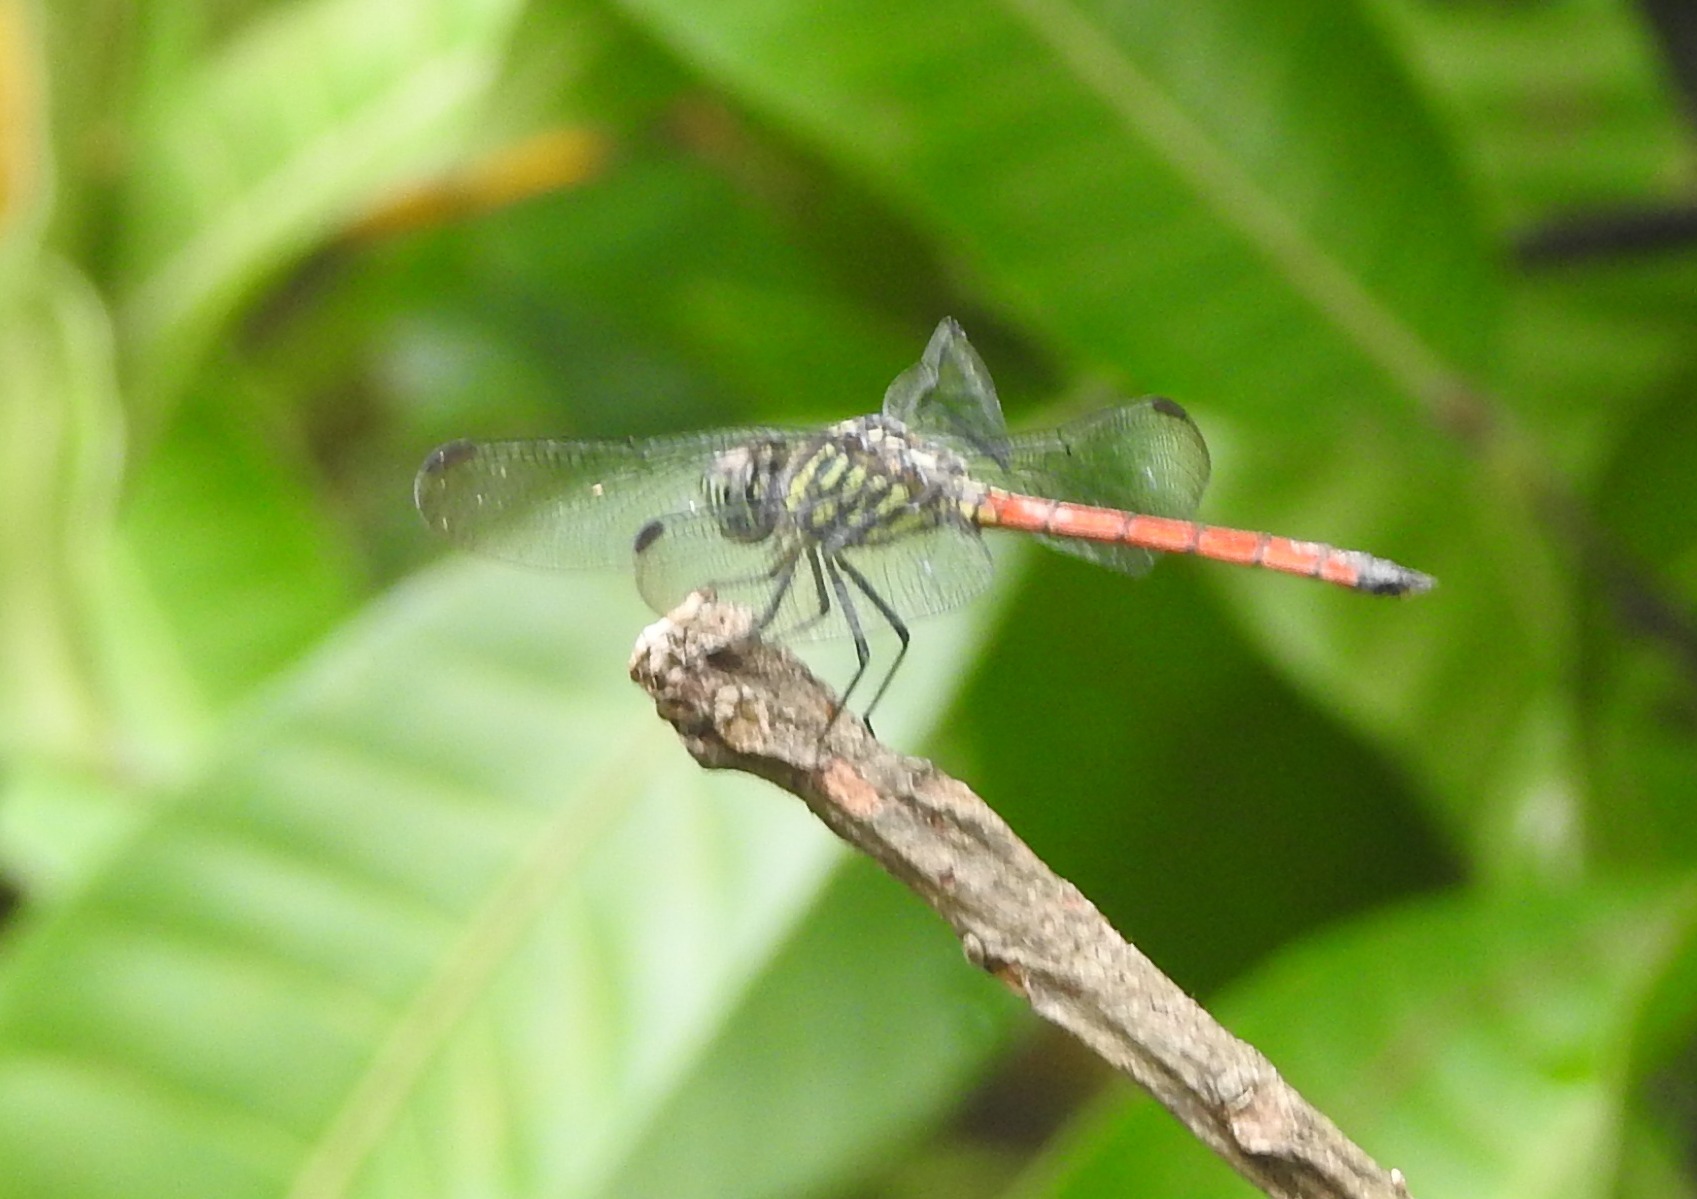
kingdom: Animalia
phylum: Arthropoda
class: Insecta
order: Odonata
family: Libellulidae
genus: Lathrecista
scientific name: Lathrecista asiatica
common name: Scarlet grenadier
